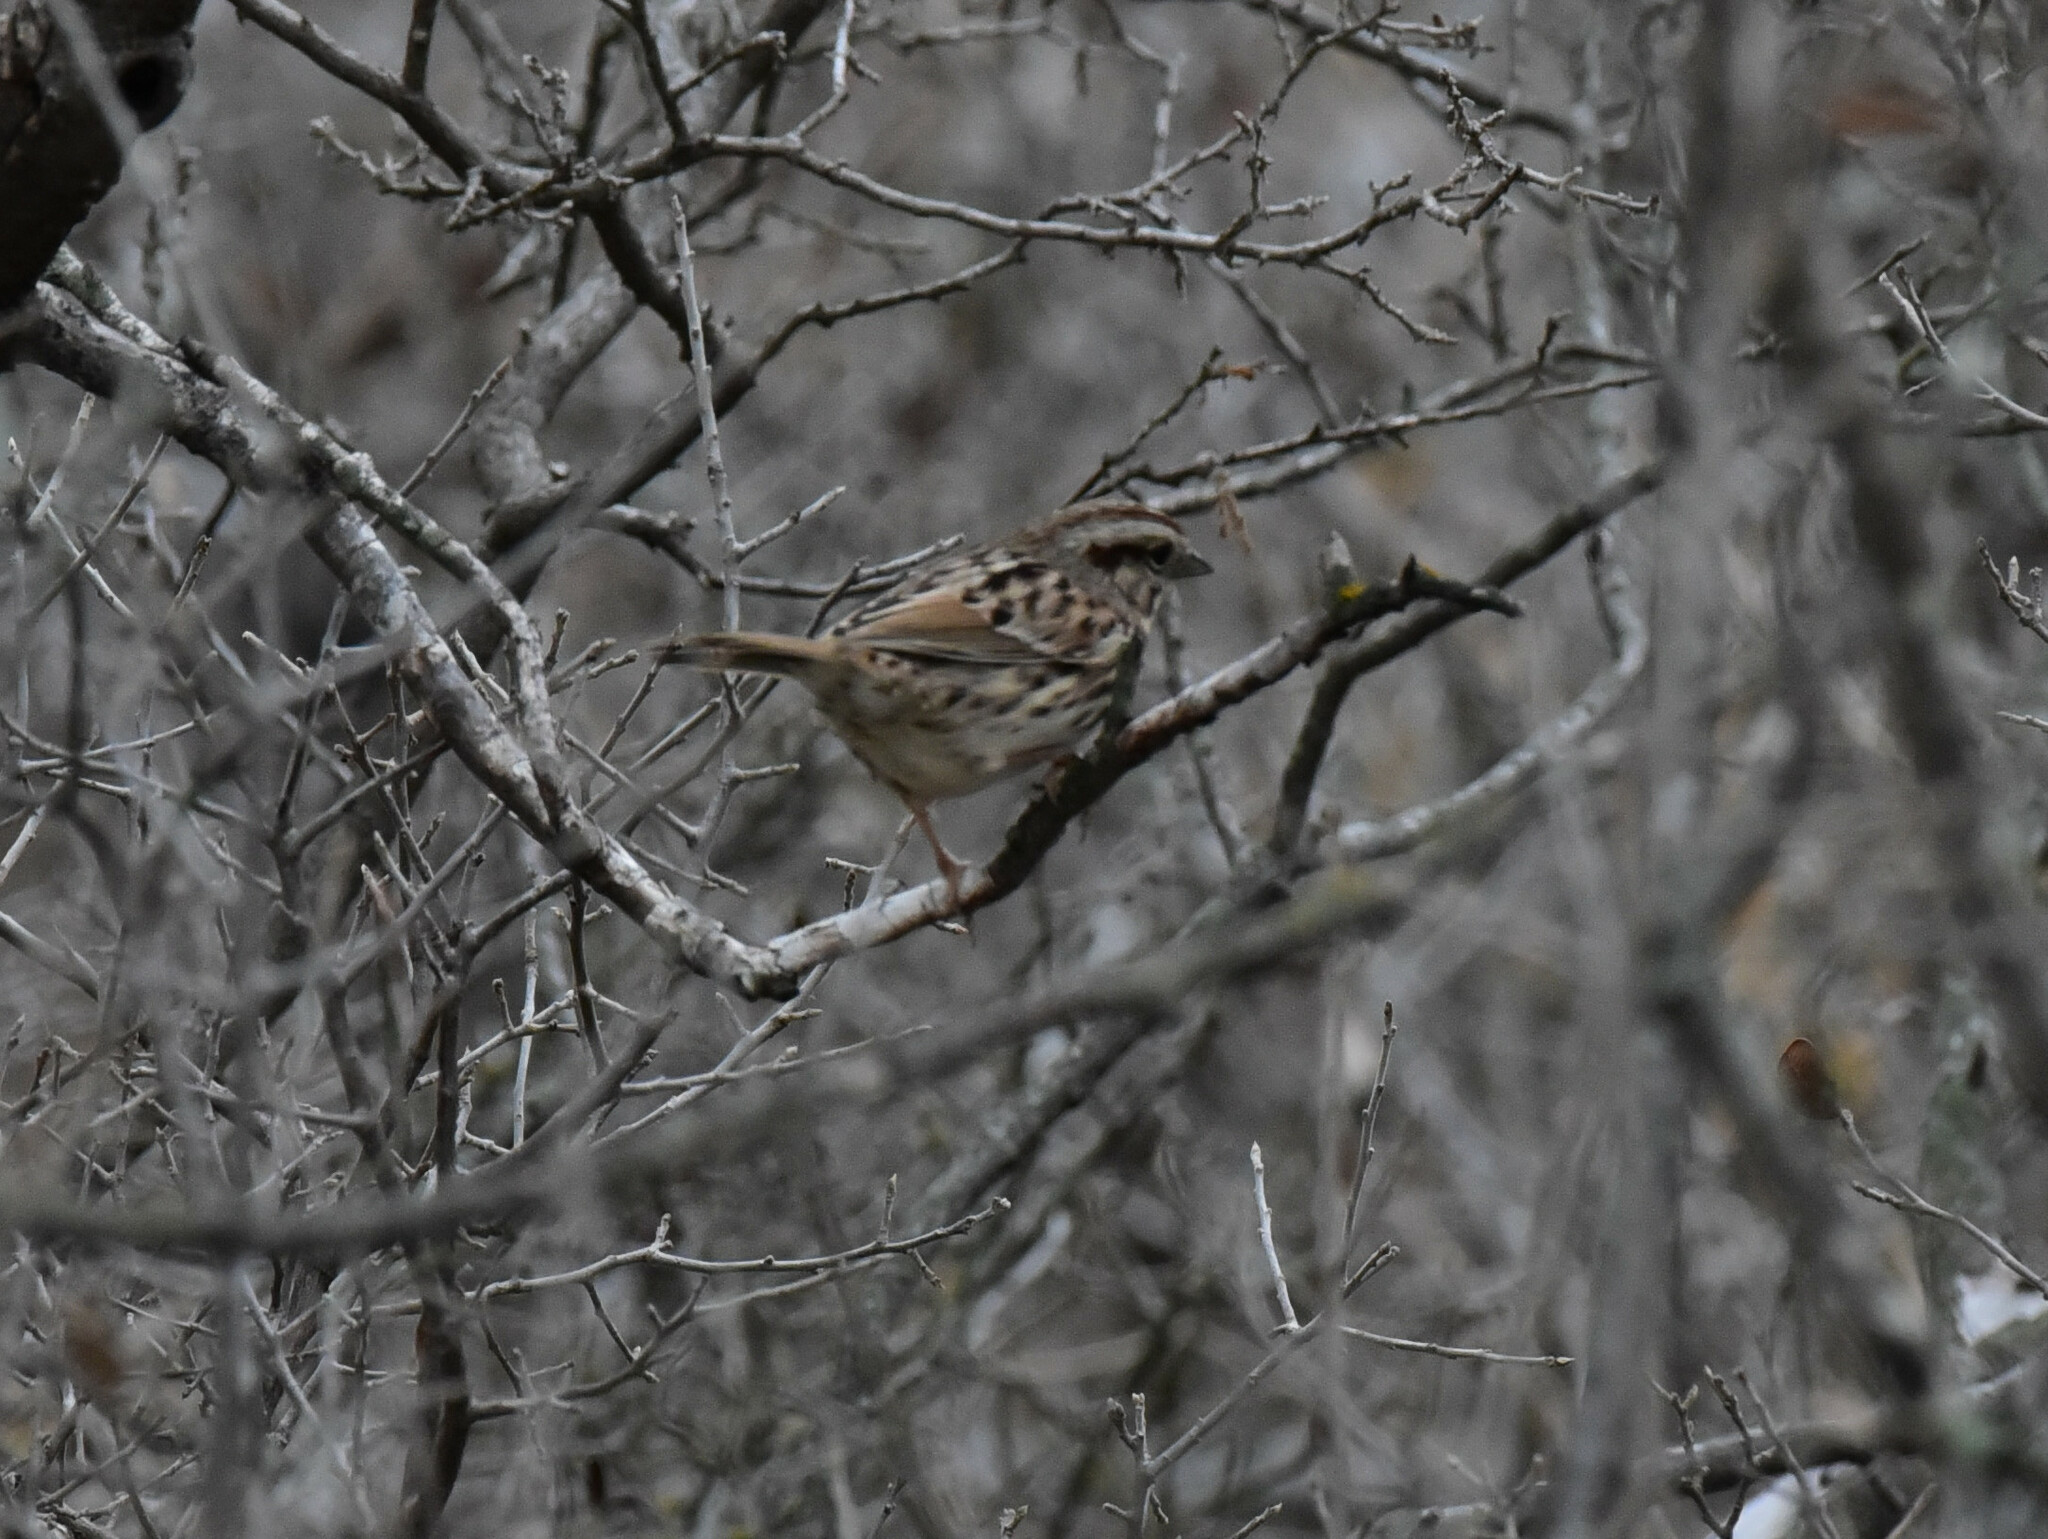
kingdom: Animalia
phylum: Chordata
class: Aves
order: Passeriformes
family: Passerellidae
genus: Melospiza
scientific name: Melospiza melodia
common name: Song sparrow
